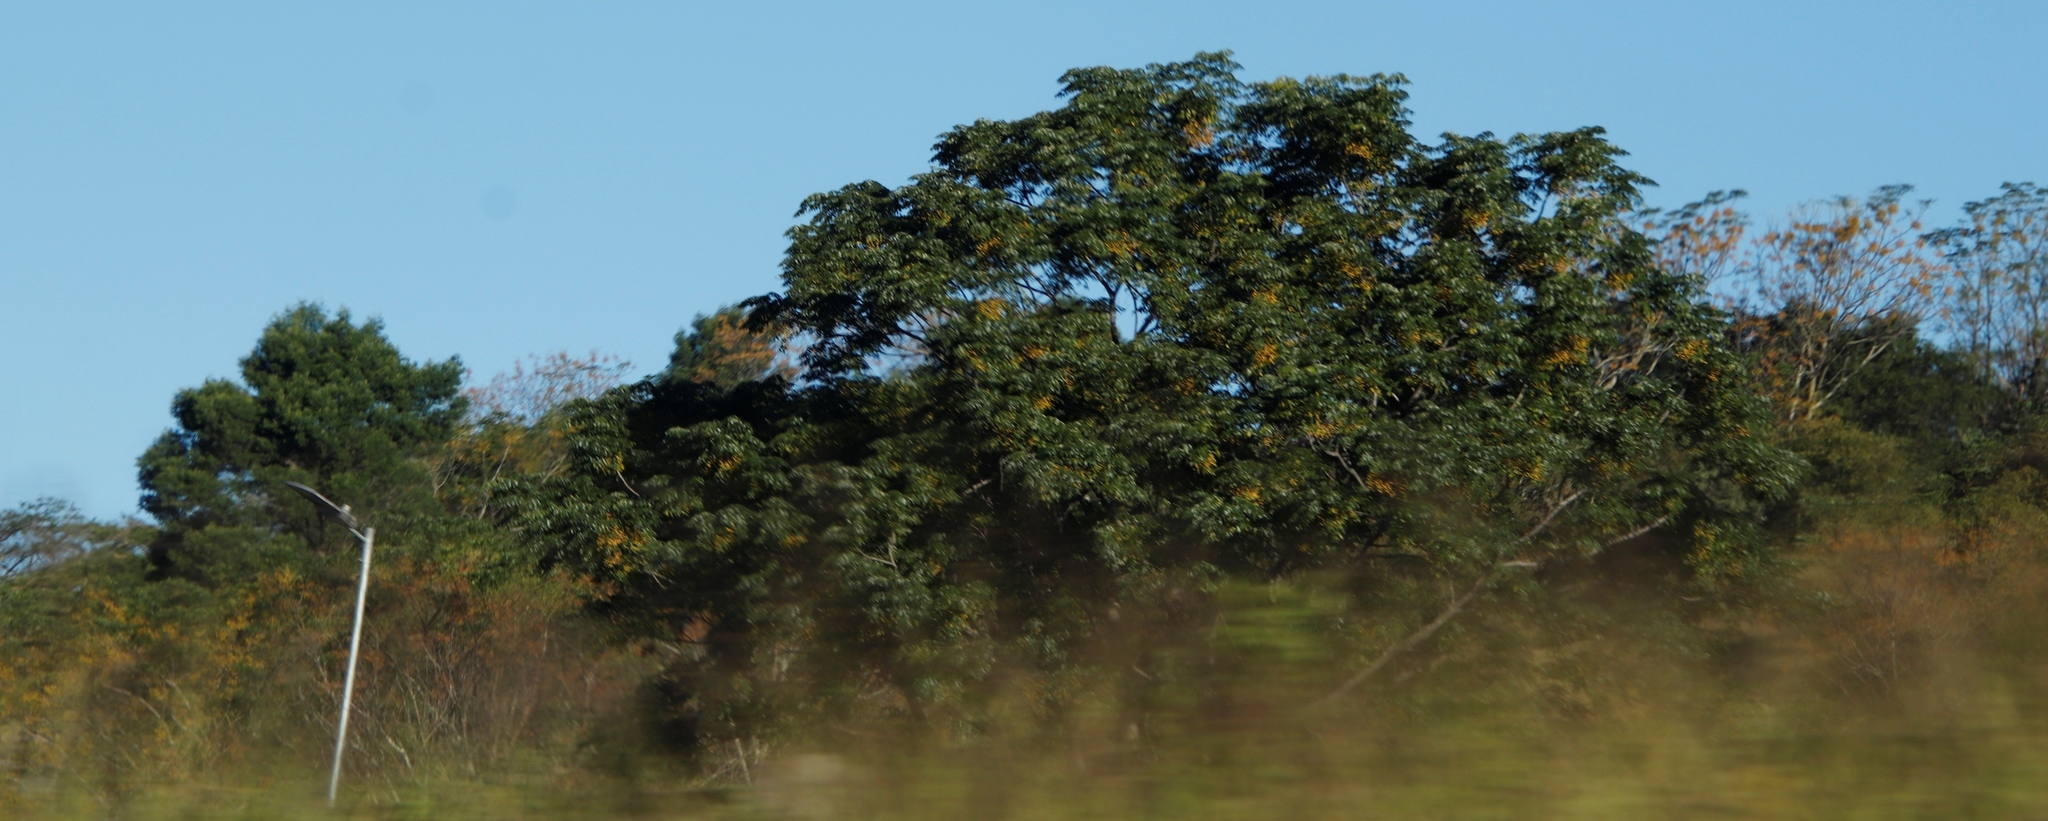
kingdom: Plantae
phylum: Tracheophyta
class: Magnoliopsida
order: Sapindales
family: Meliaceae
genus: Melia
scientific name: Melia azedarach
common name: Chinaberrytree
